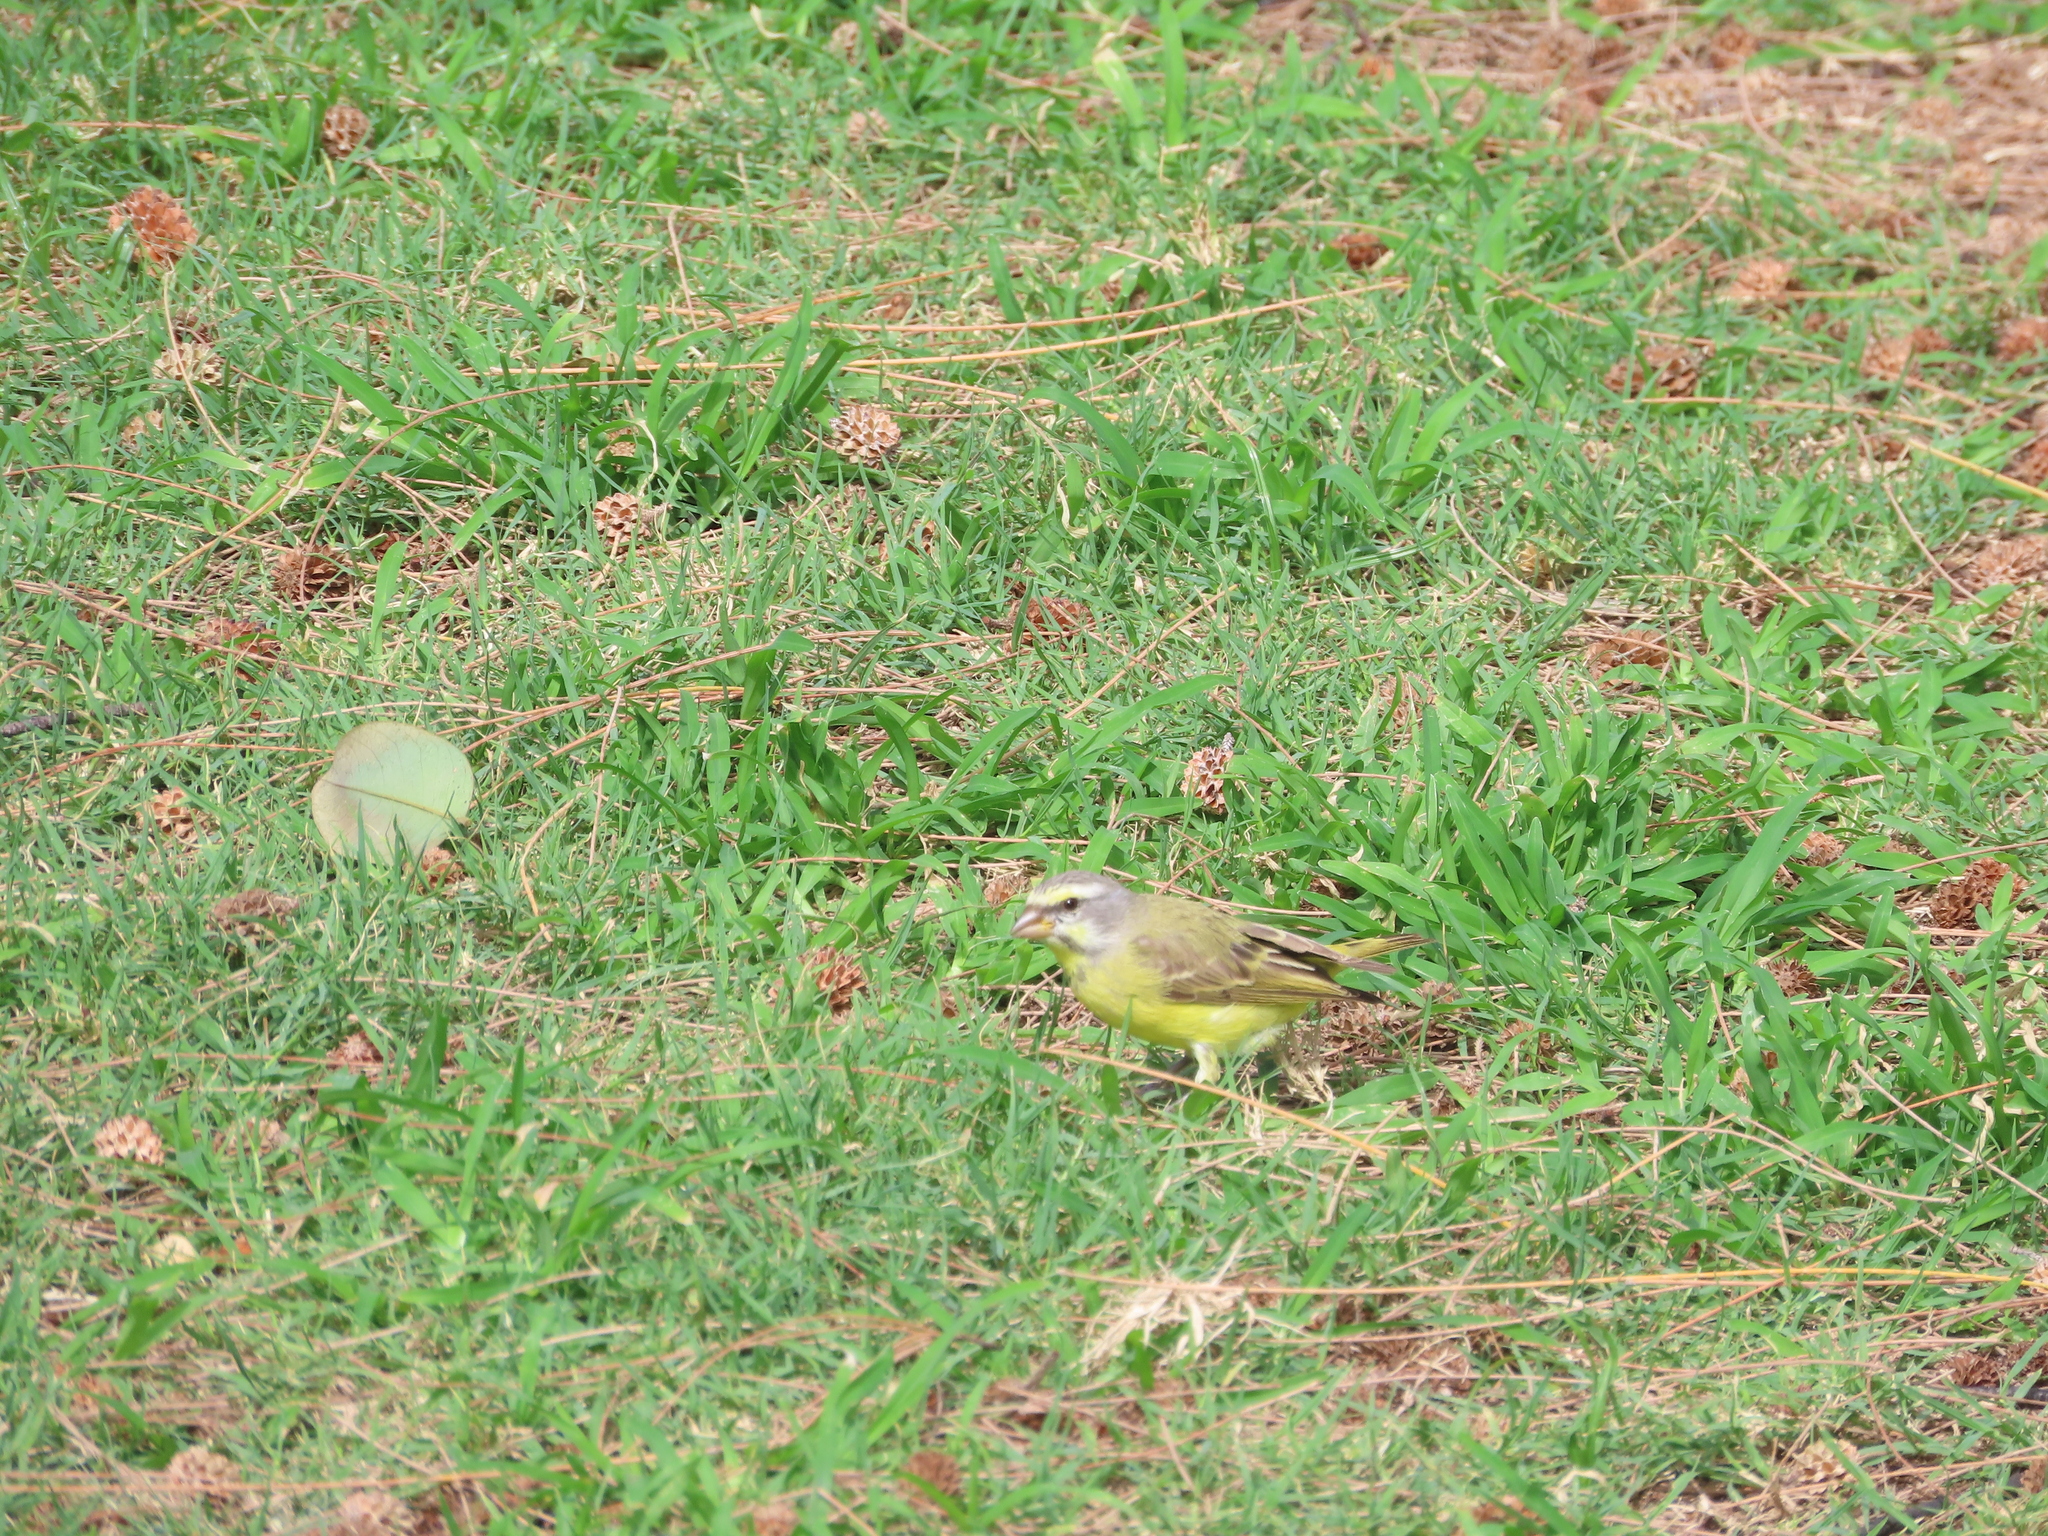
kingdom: Animalia
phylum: Chordata
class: Aves
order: Passeriformes
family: Fringillidae
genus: Crithagra
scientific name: Crithagra mozambica
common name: Yellow-fronted canary
